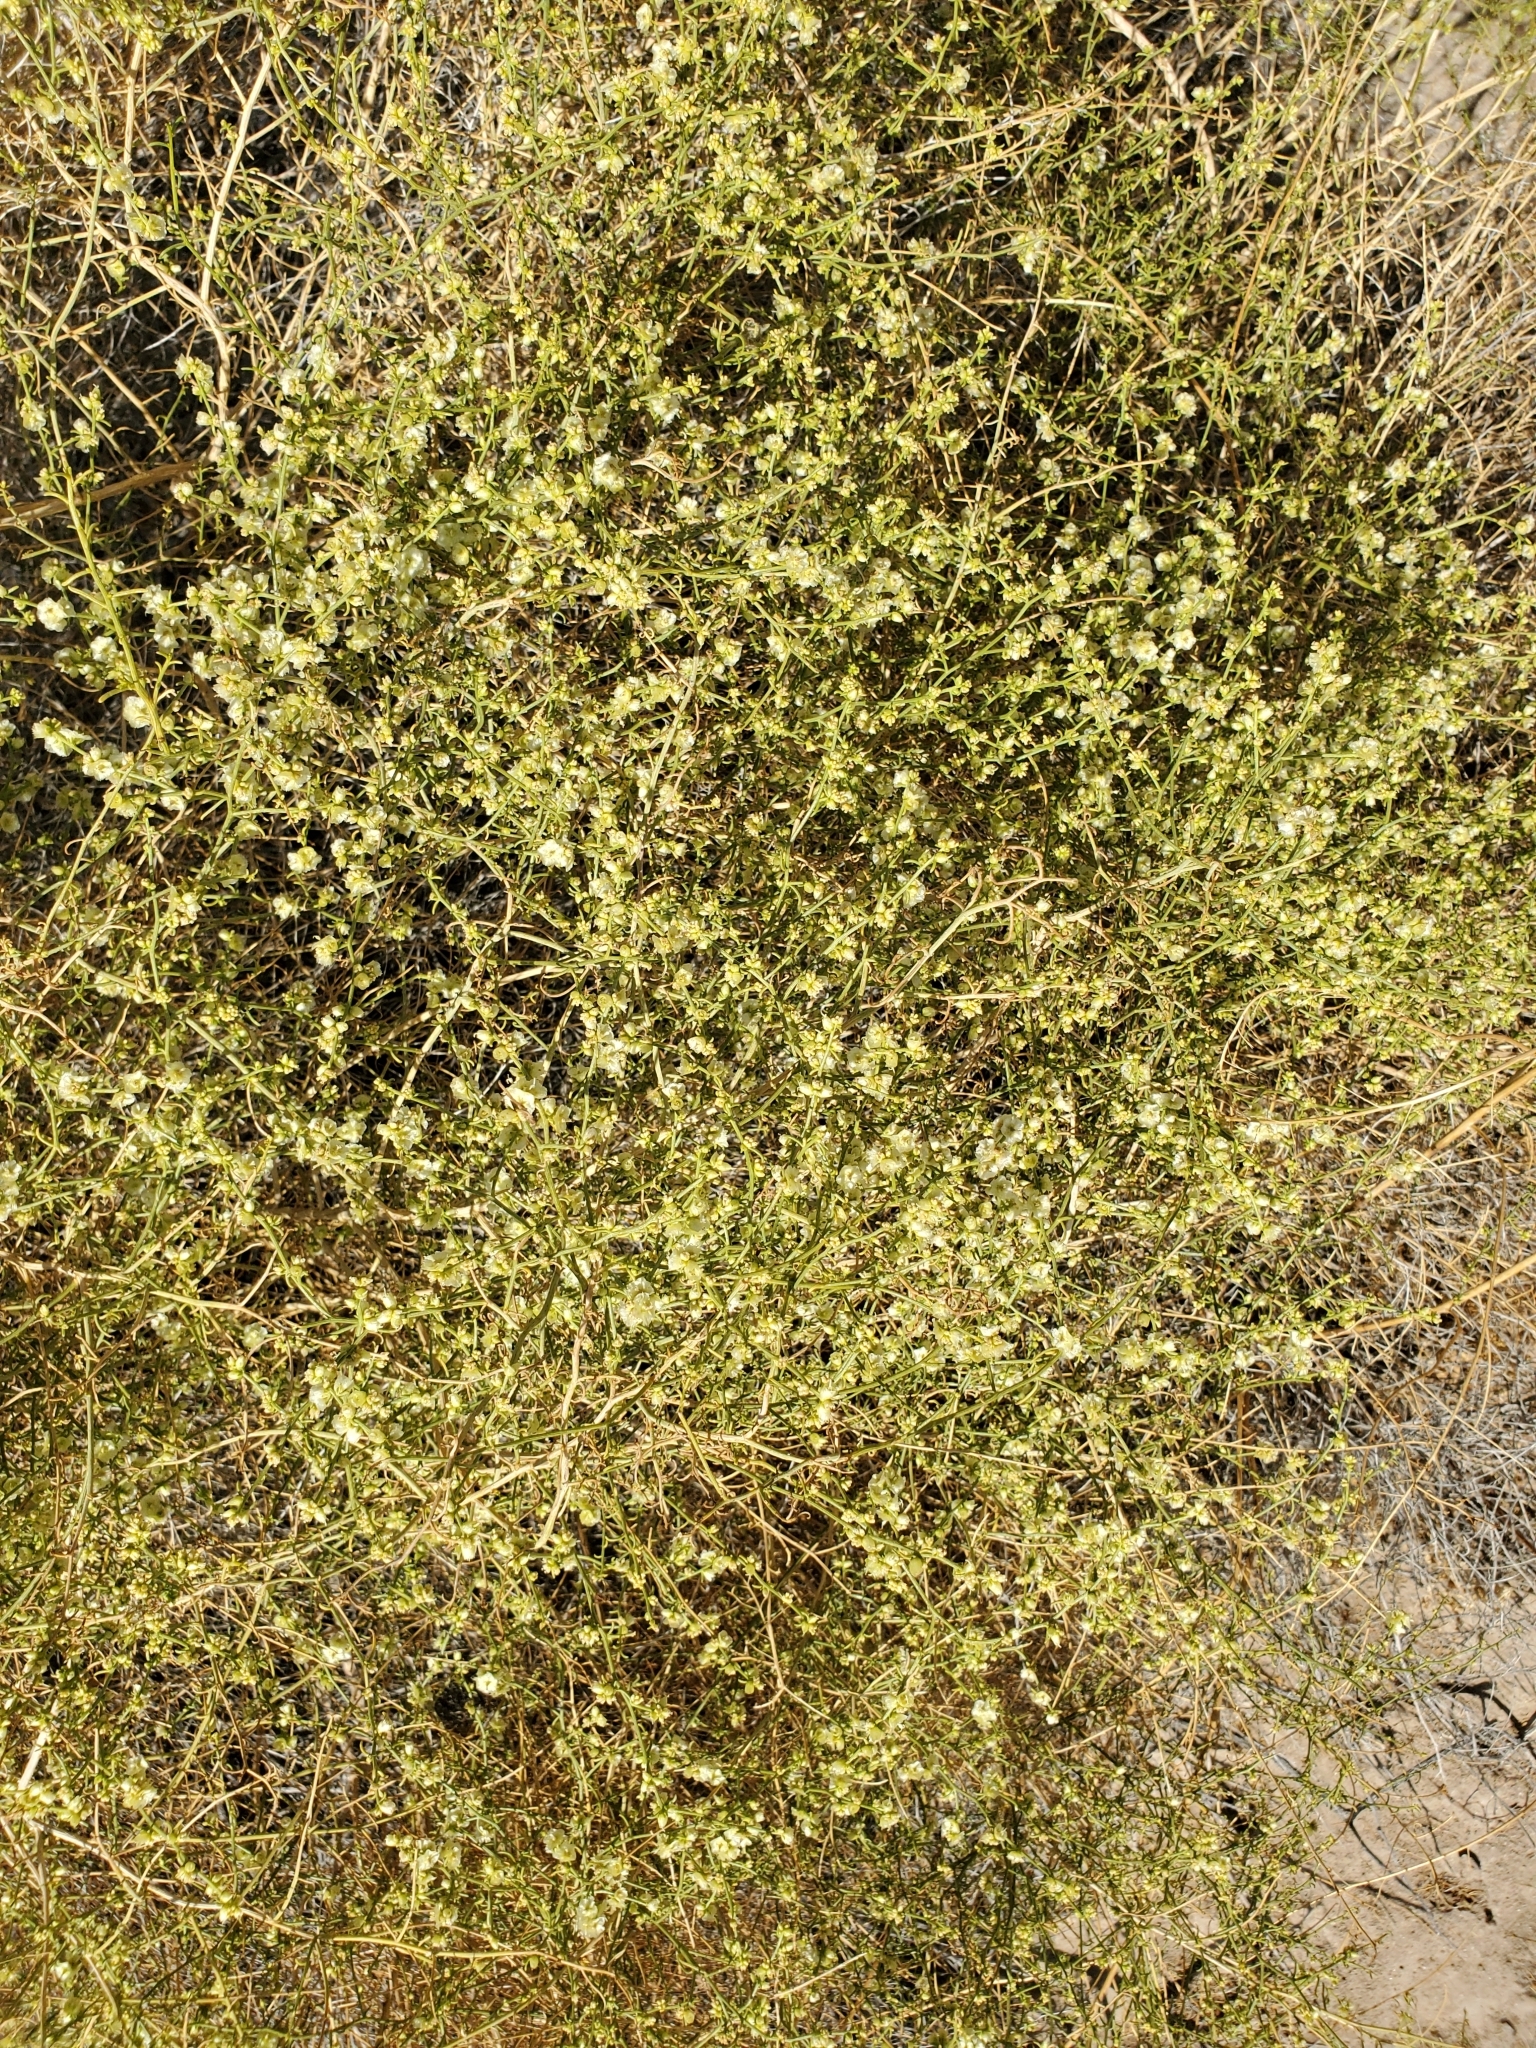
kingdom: Plantae
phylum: Tracheophyta
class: Magnoliopsida
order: Asterales
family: Asteraceae
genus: Ambrosia
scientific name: Ambrosia salsola
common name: Burrobrush
